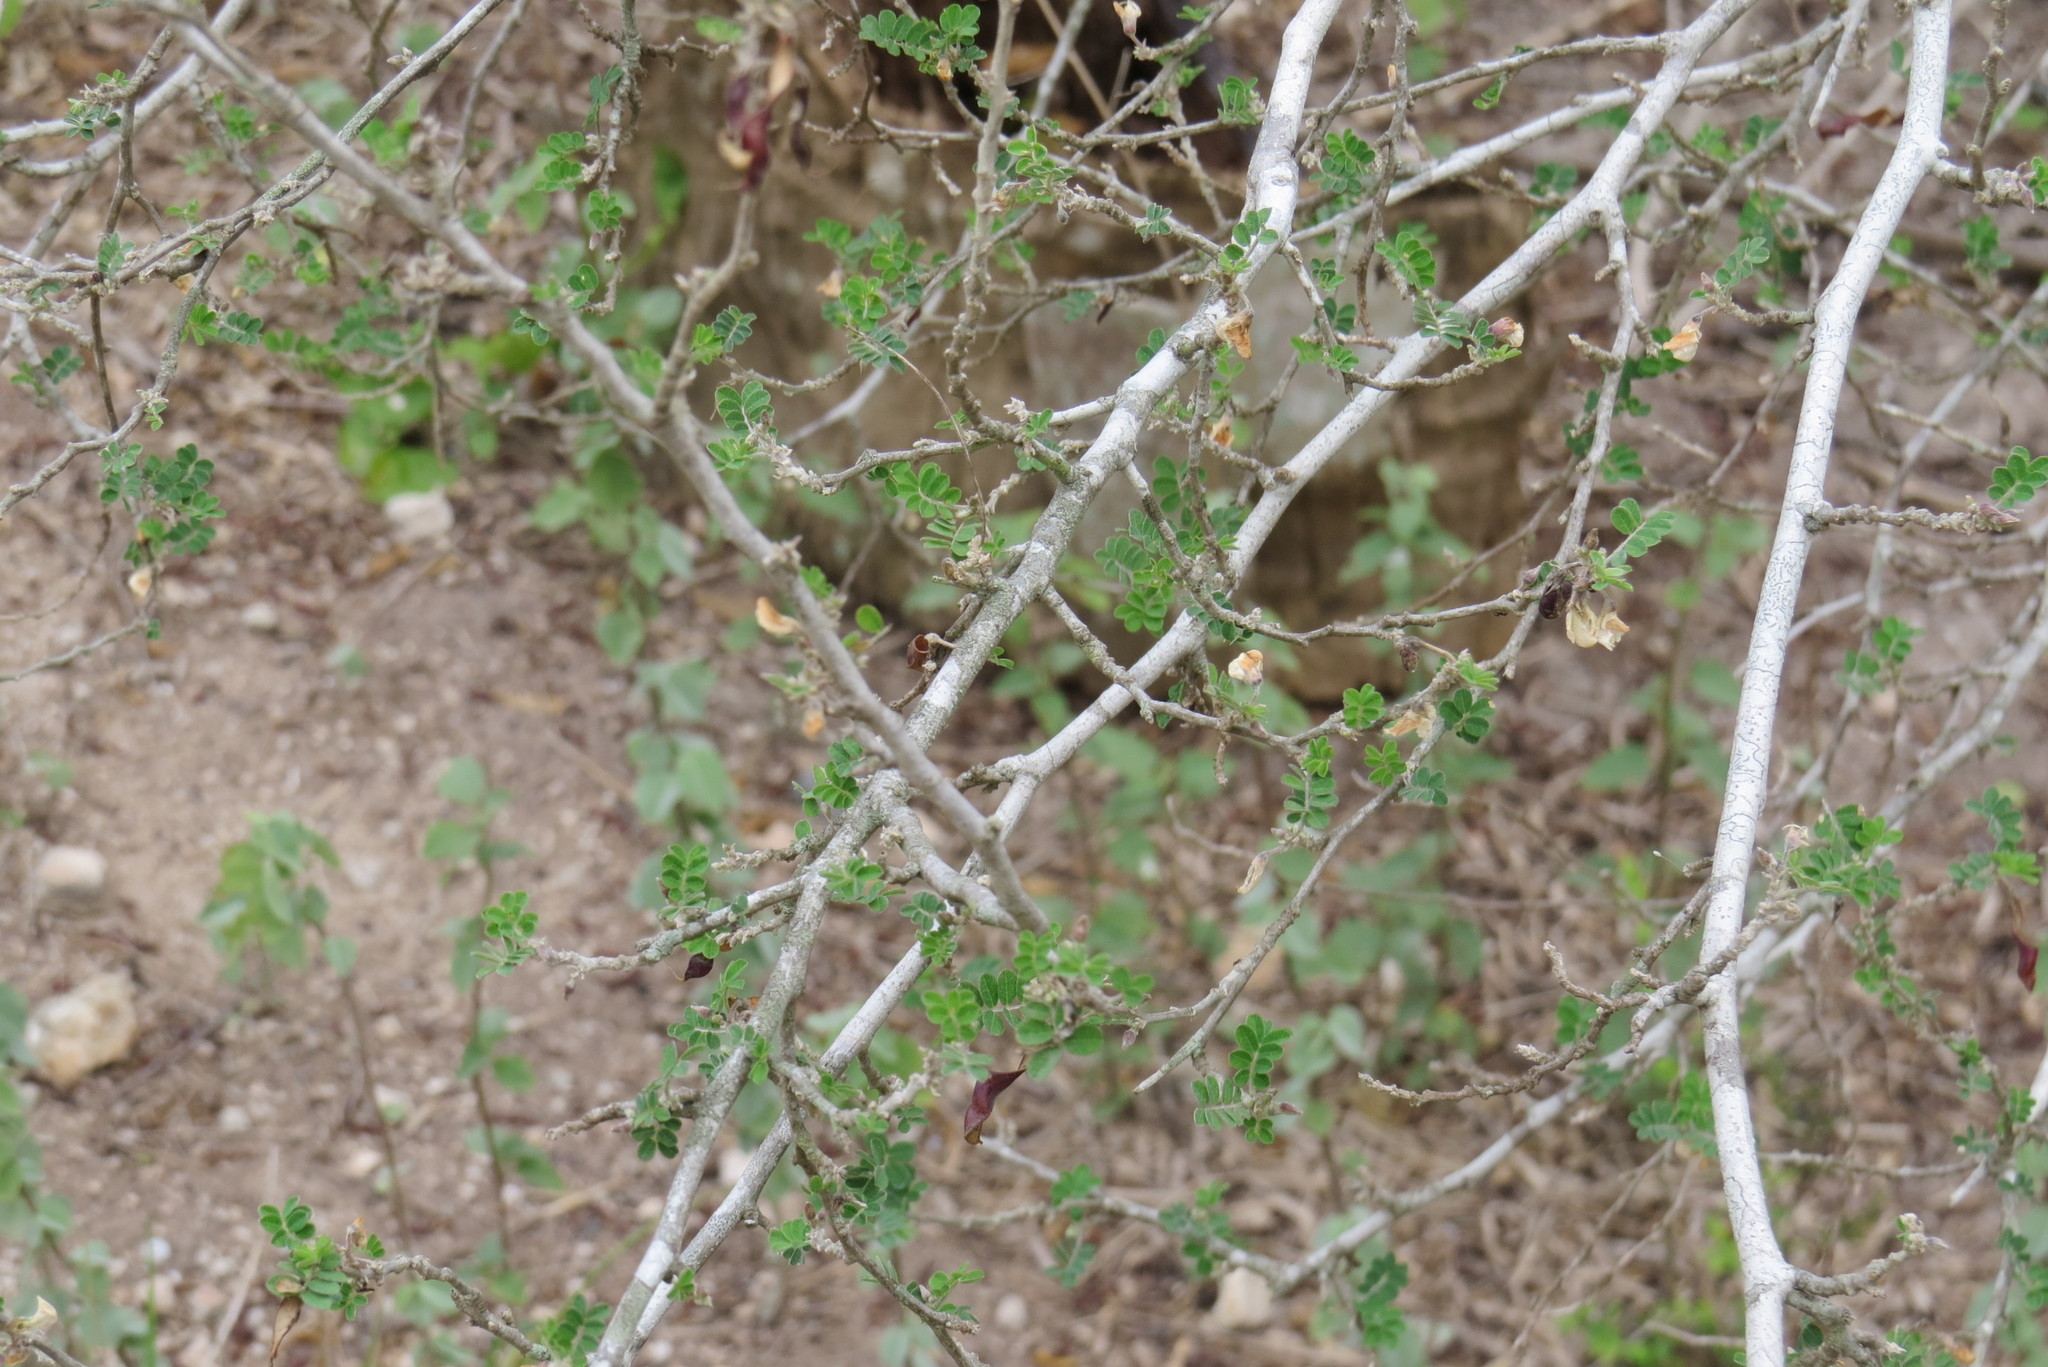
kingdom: Plantae
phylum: Tracheophyta
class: Magnoliopsida
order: Fabales
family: Fabaceae
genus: Coursetia
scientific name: Coursetia axillaris
